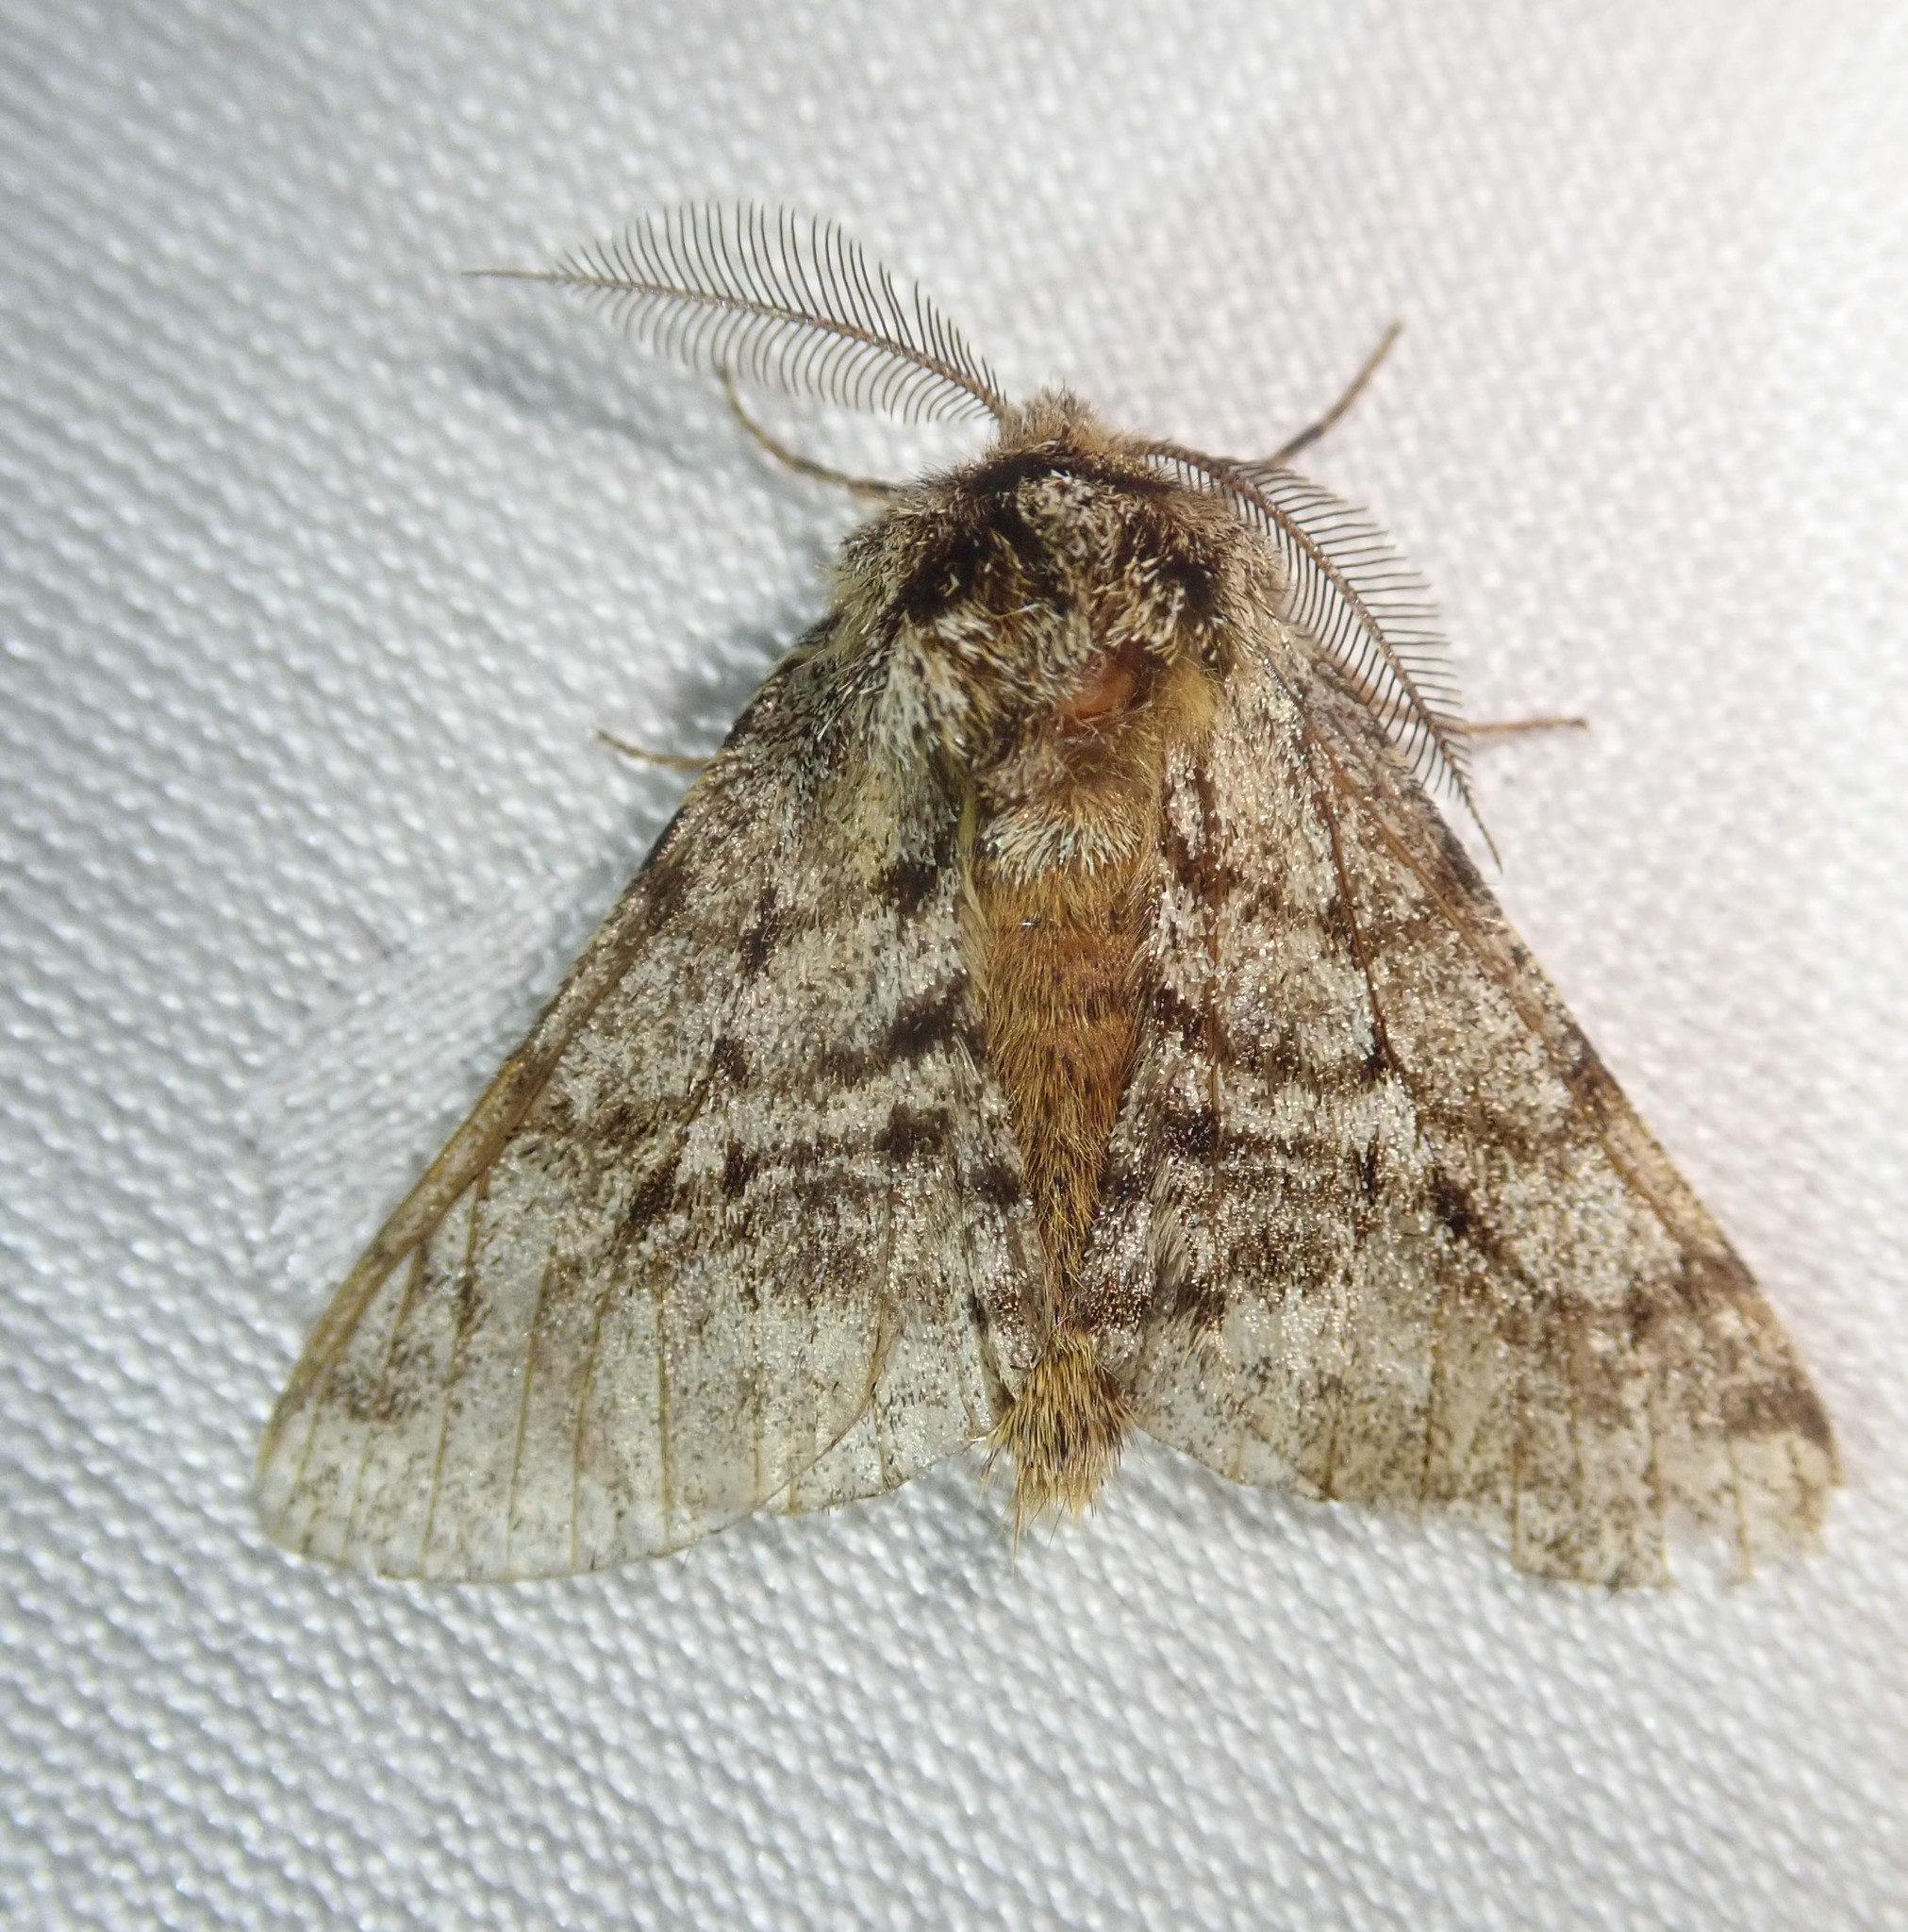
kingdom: Animalia
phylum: Arthropoda
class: Insecta
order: Lepidoptera
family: Geometridae
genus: Lycia
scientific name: Lycia hirtaria
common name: Brindled beauty
